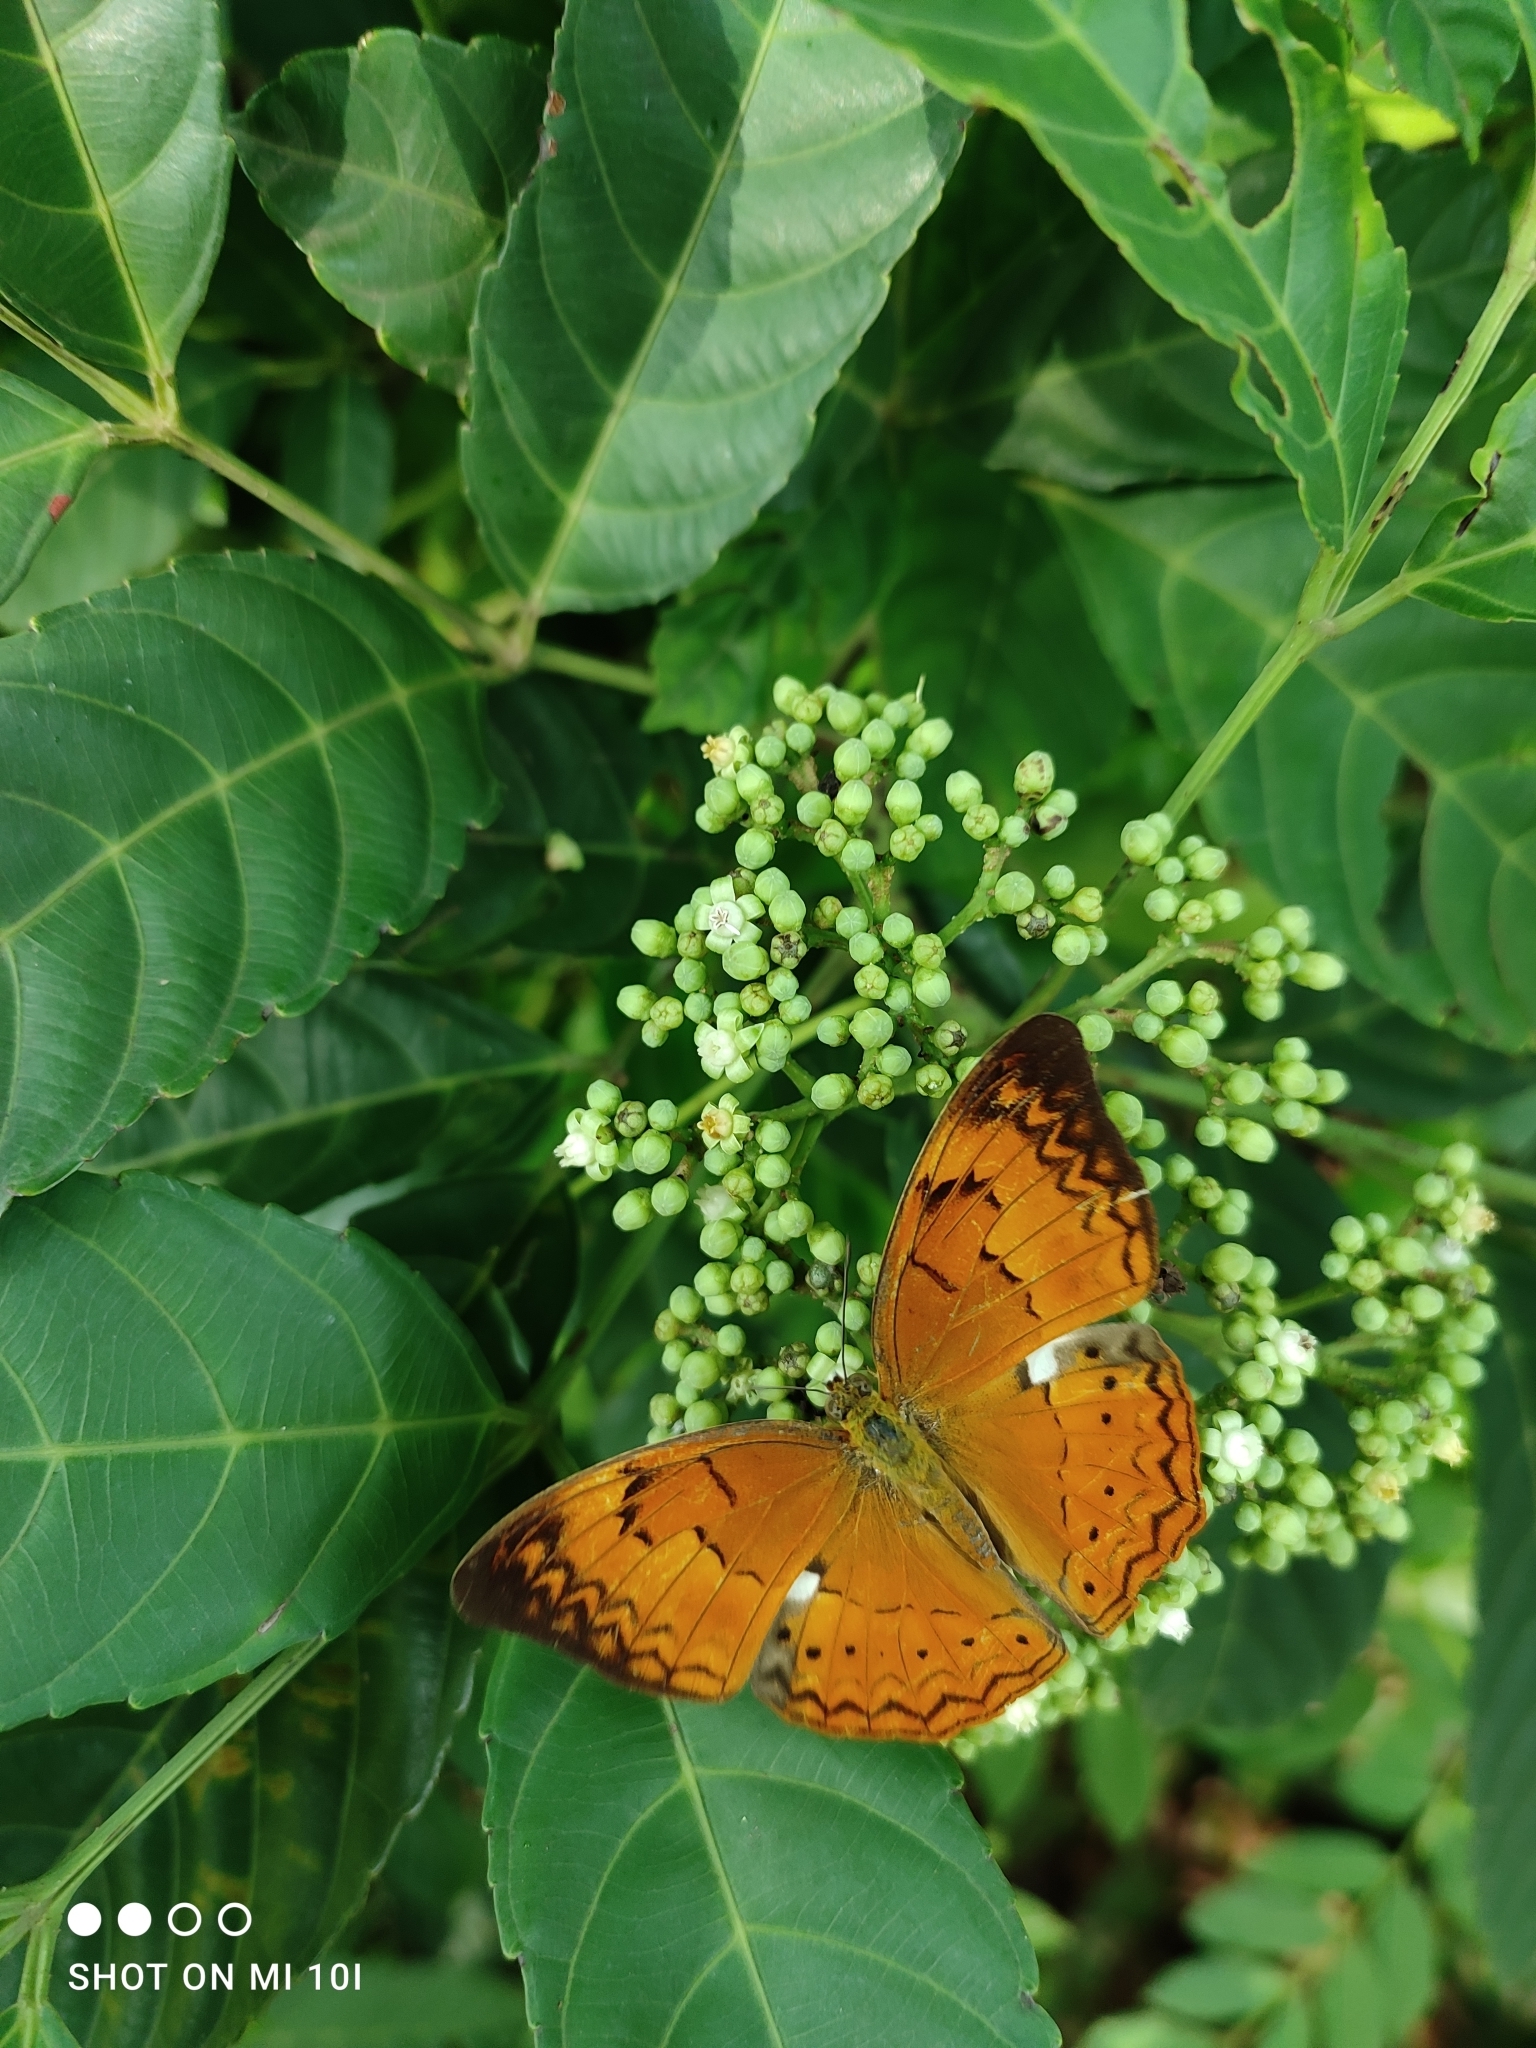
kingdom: Animalia
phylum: Arthropoda
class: Insecta
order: Lepidoptera
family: Nymphalidae
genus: Cirrochroa
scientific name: Cirrochroa thais
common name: Tamil yeoman
